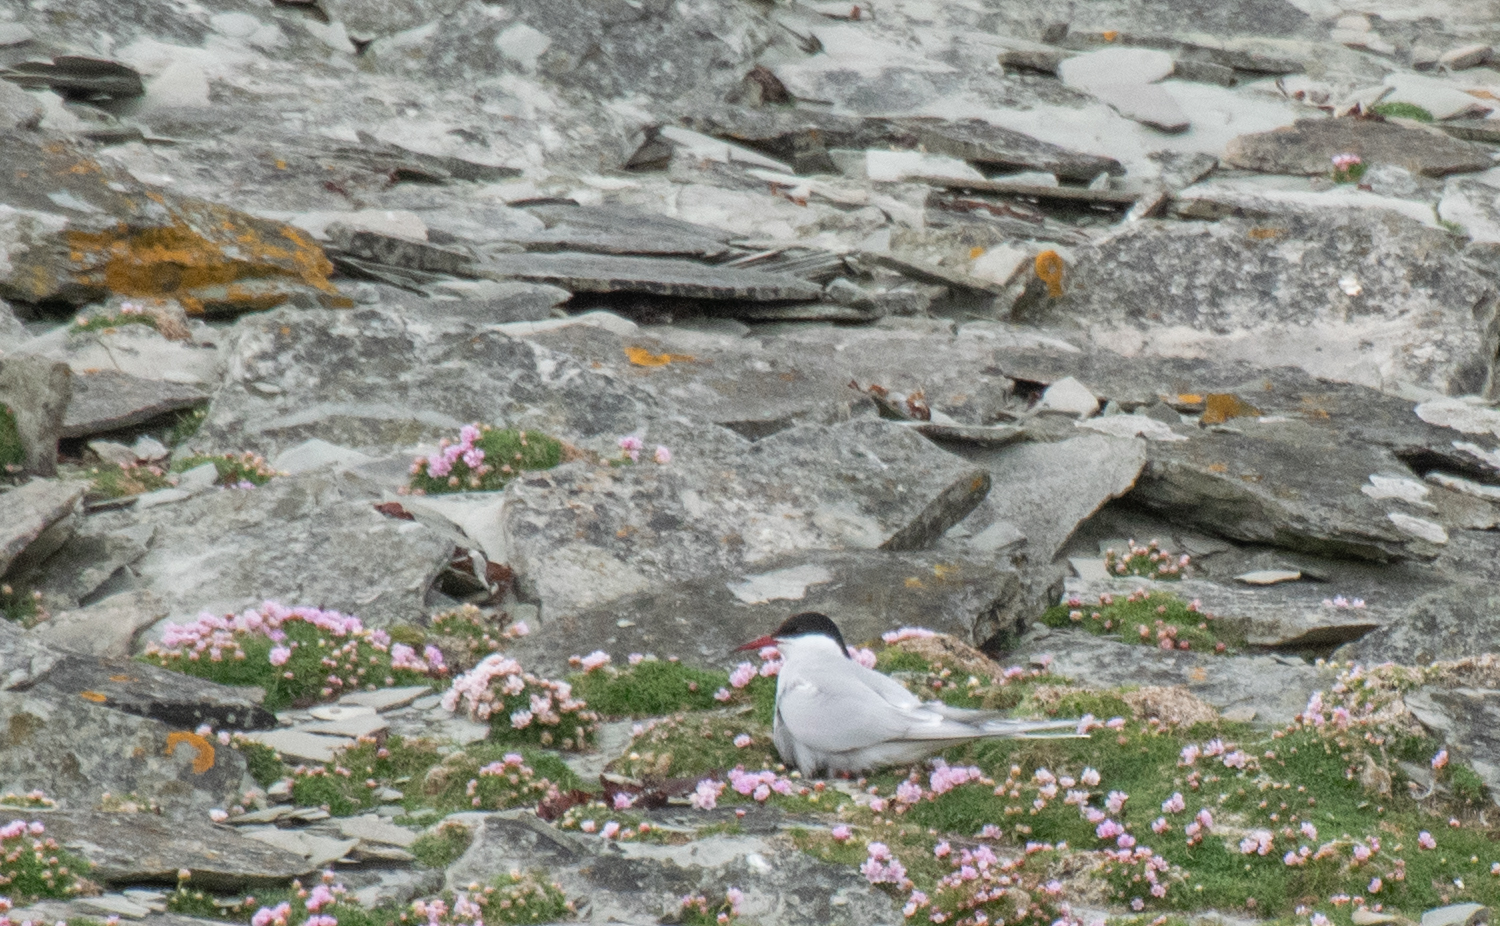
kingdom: Animalia
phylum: Chordata
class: Aves
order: Charadriiformes
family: Laridae
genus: Sterna
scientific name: Sterna paradisaea
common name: Arctic tern
